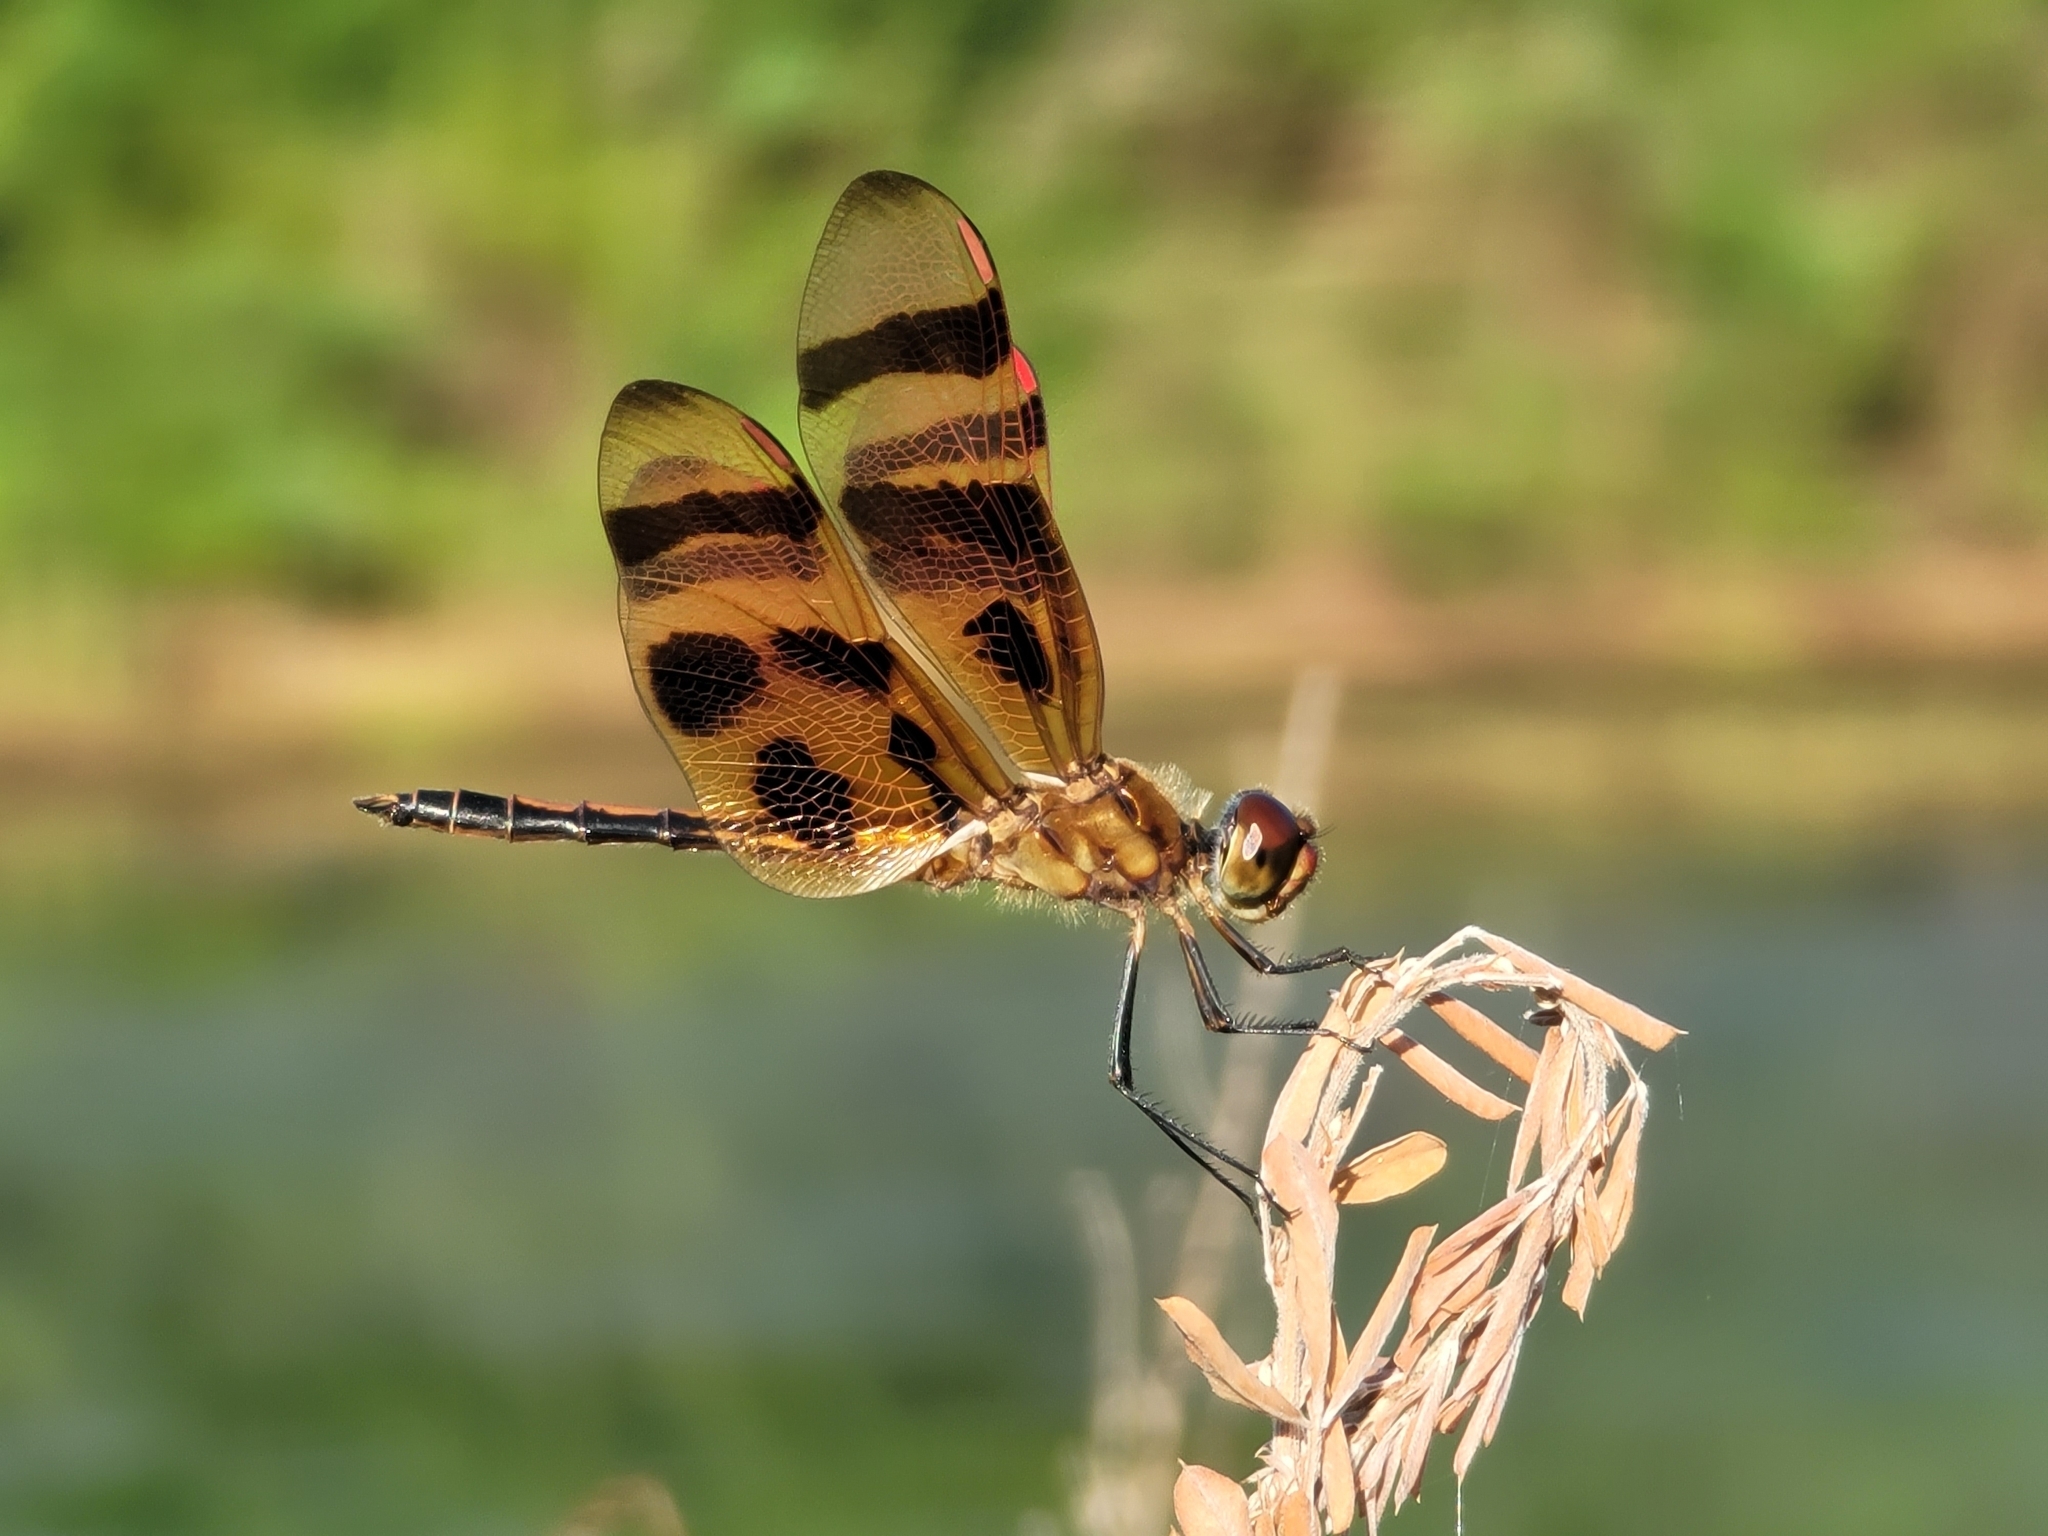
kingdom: Animalia
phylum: Arthropoda
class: Insecta
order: Odonata
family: Libellulidae
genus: Celithemis
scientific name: Celithemis eponina
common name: Halloween pennant
